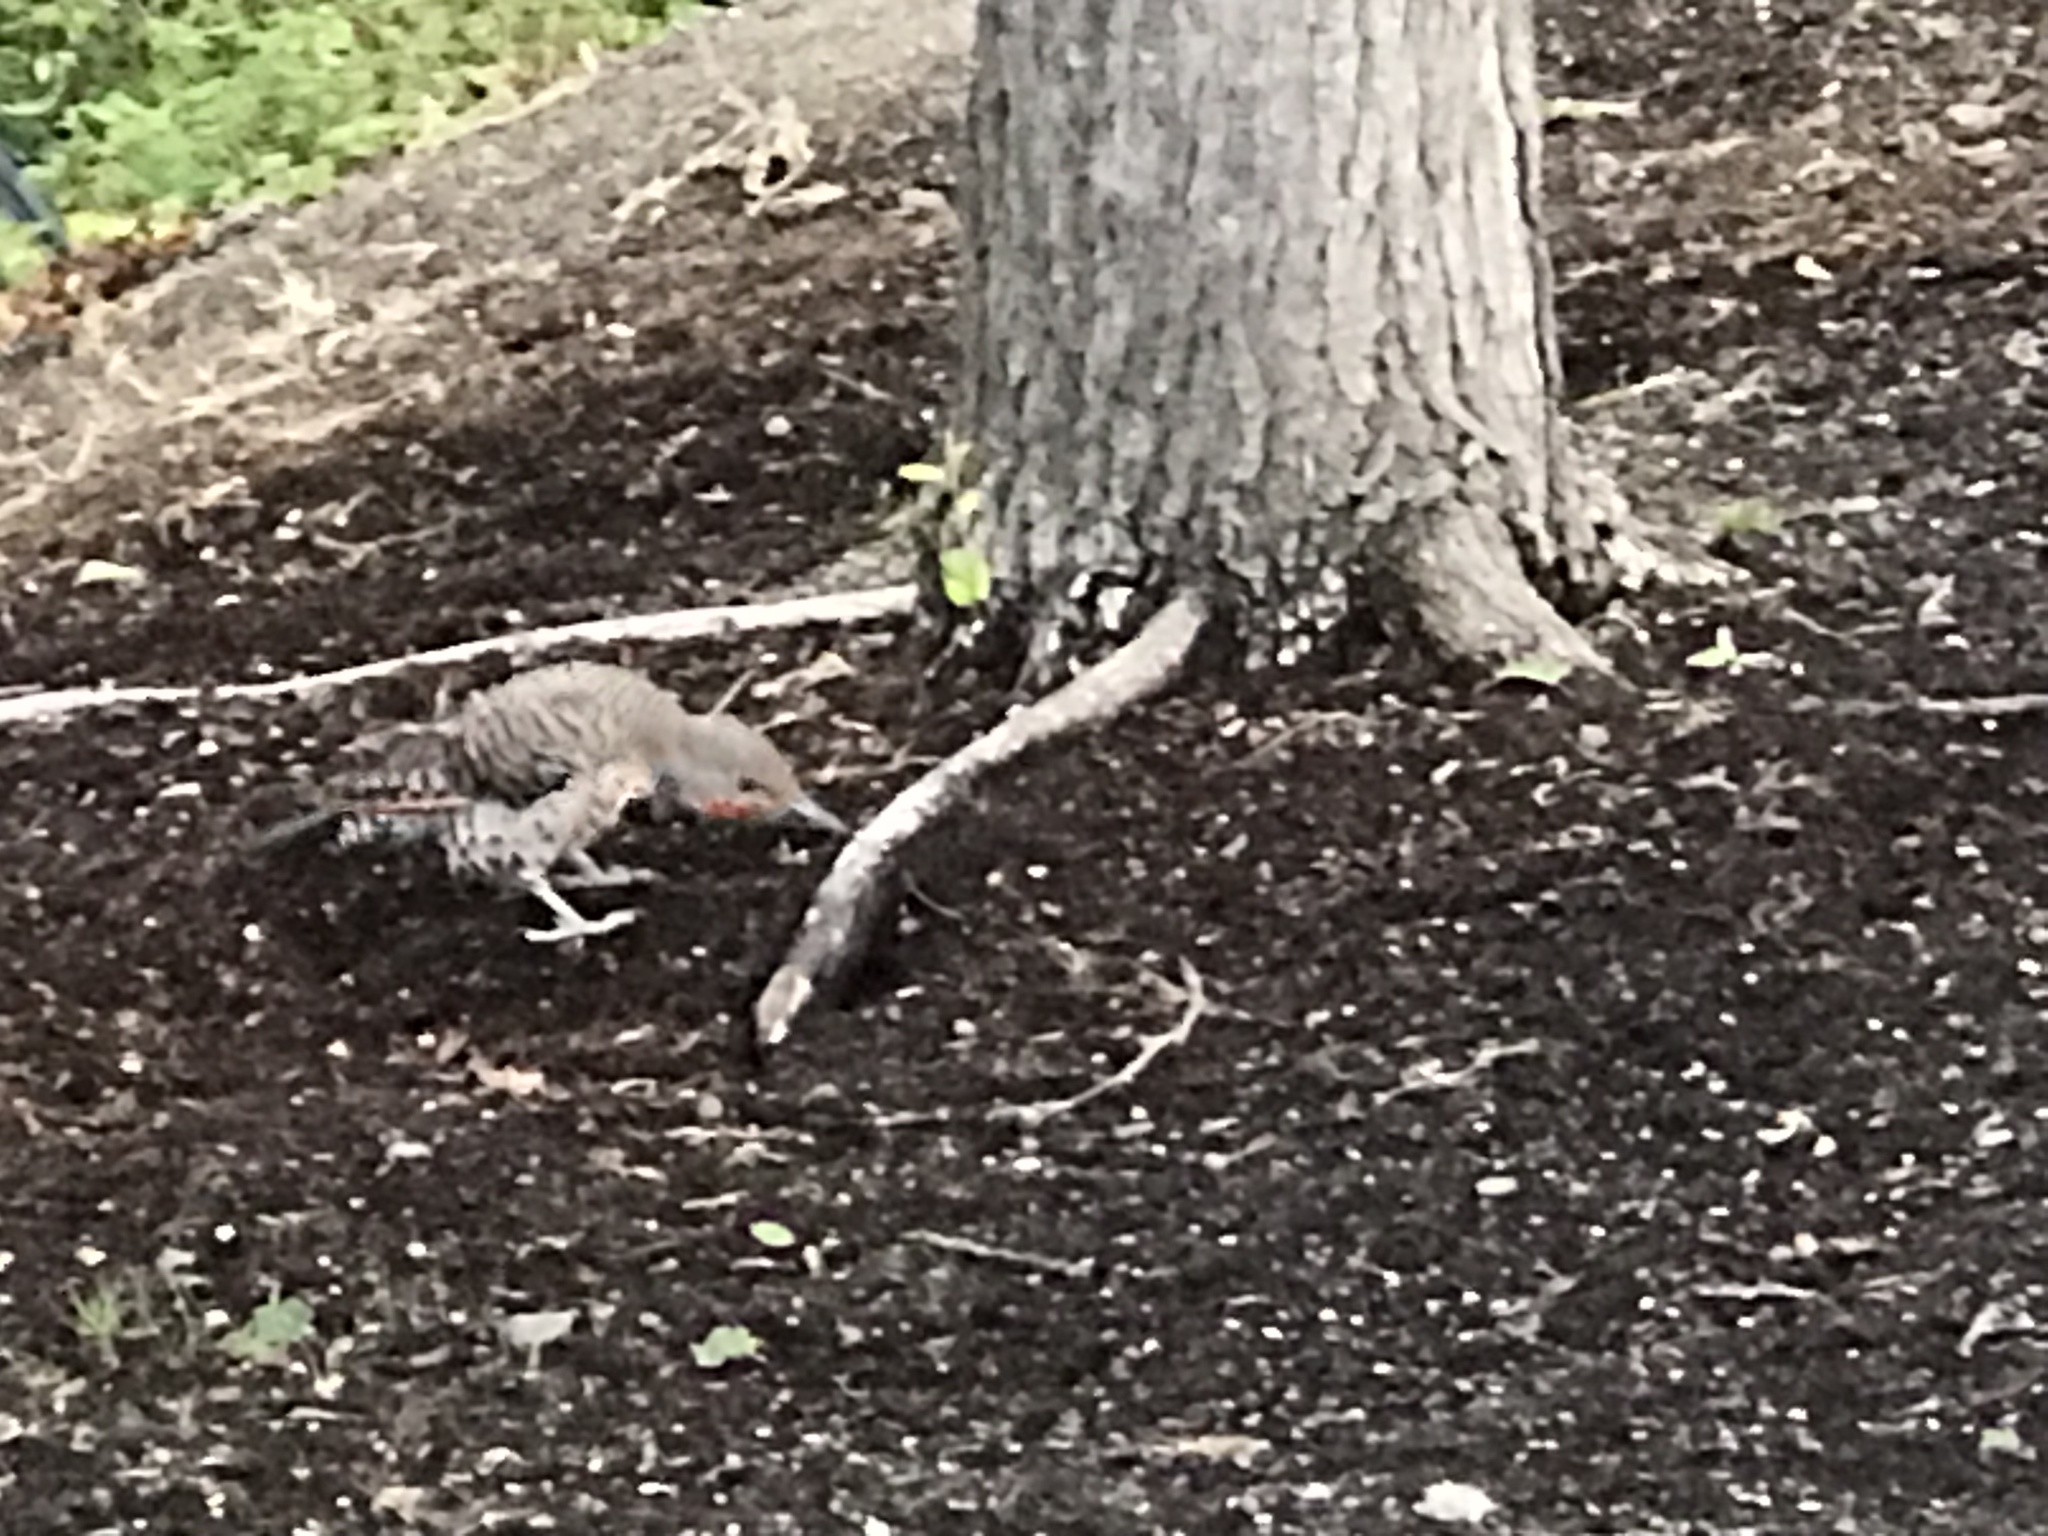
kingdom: Animalia
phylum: Chordata
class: Aves
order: Piciformes
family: Picidae
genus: Colaptes
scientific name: Colaptes auratus
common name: Northern flicker
